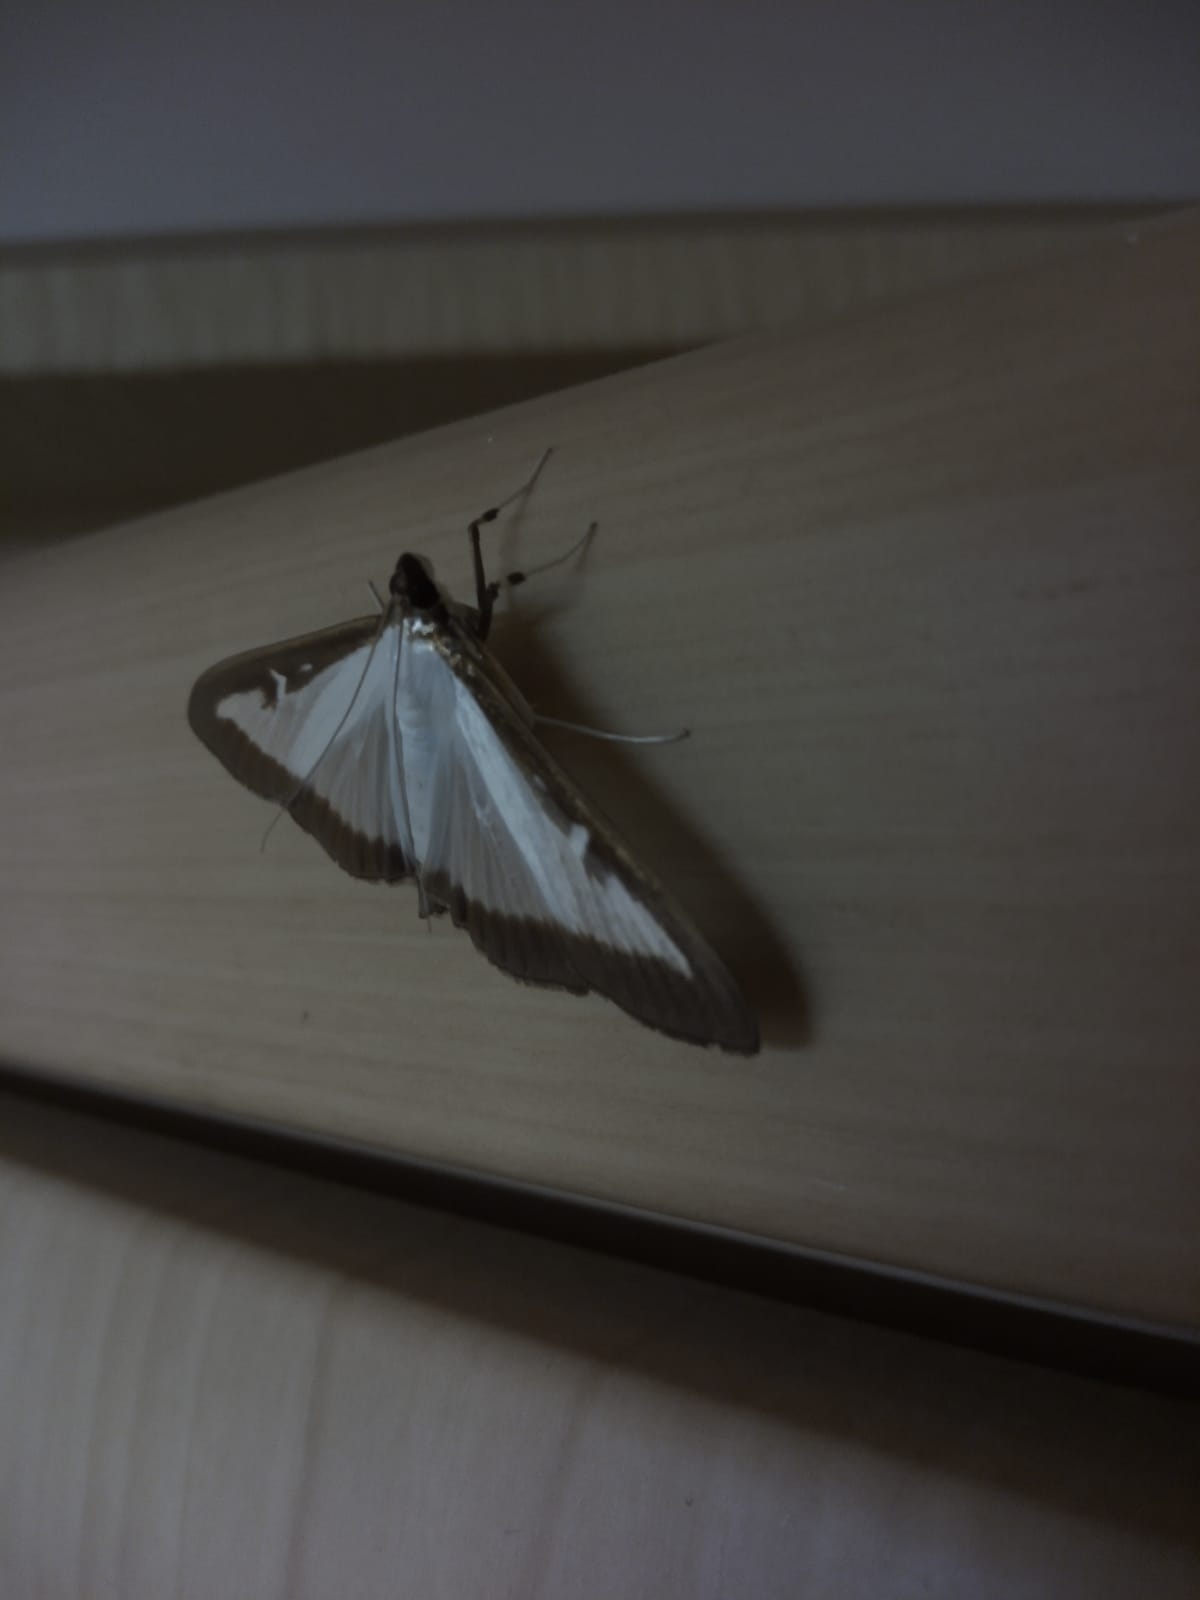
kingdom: Animalia
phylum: Arthropoda
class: Insecta
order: Lepidoptera
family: Crambidae
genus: Cydalima
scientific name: Cydalima perspectalis
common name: Box tree moth
